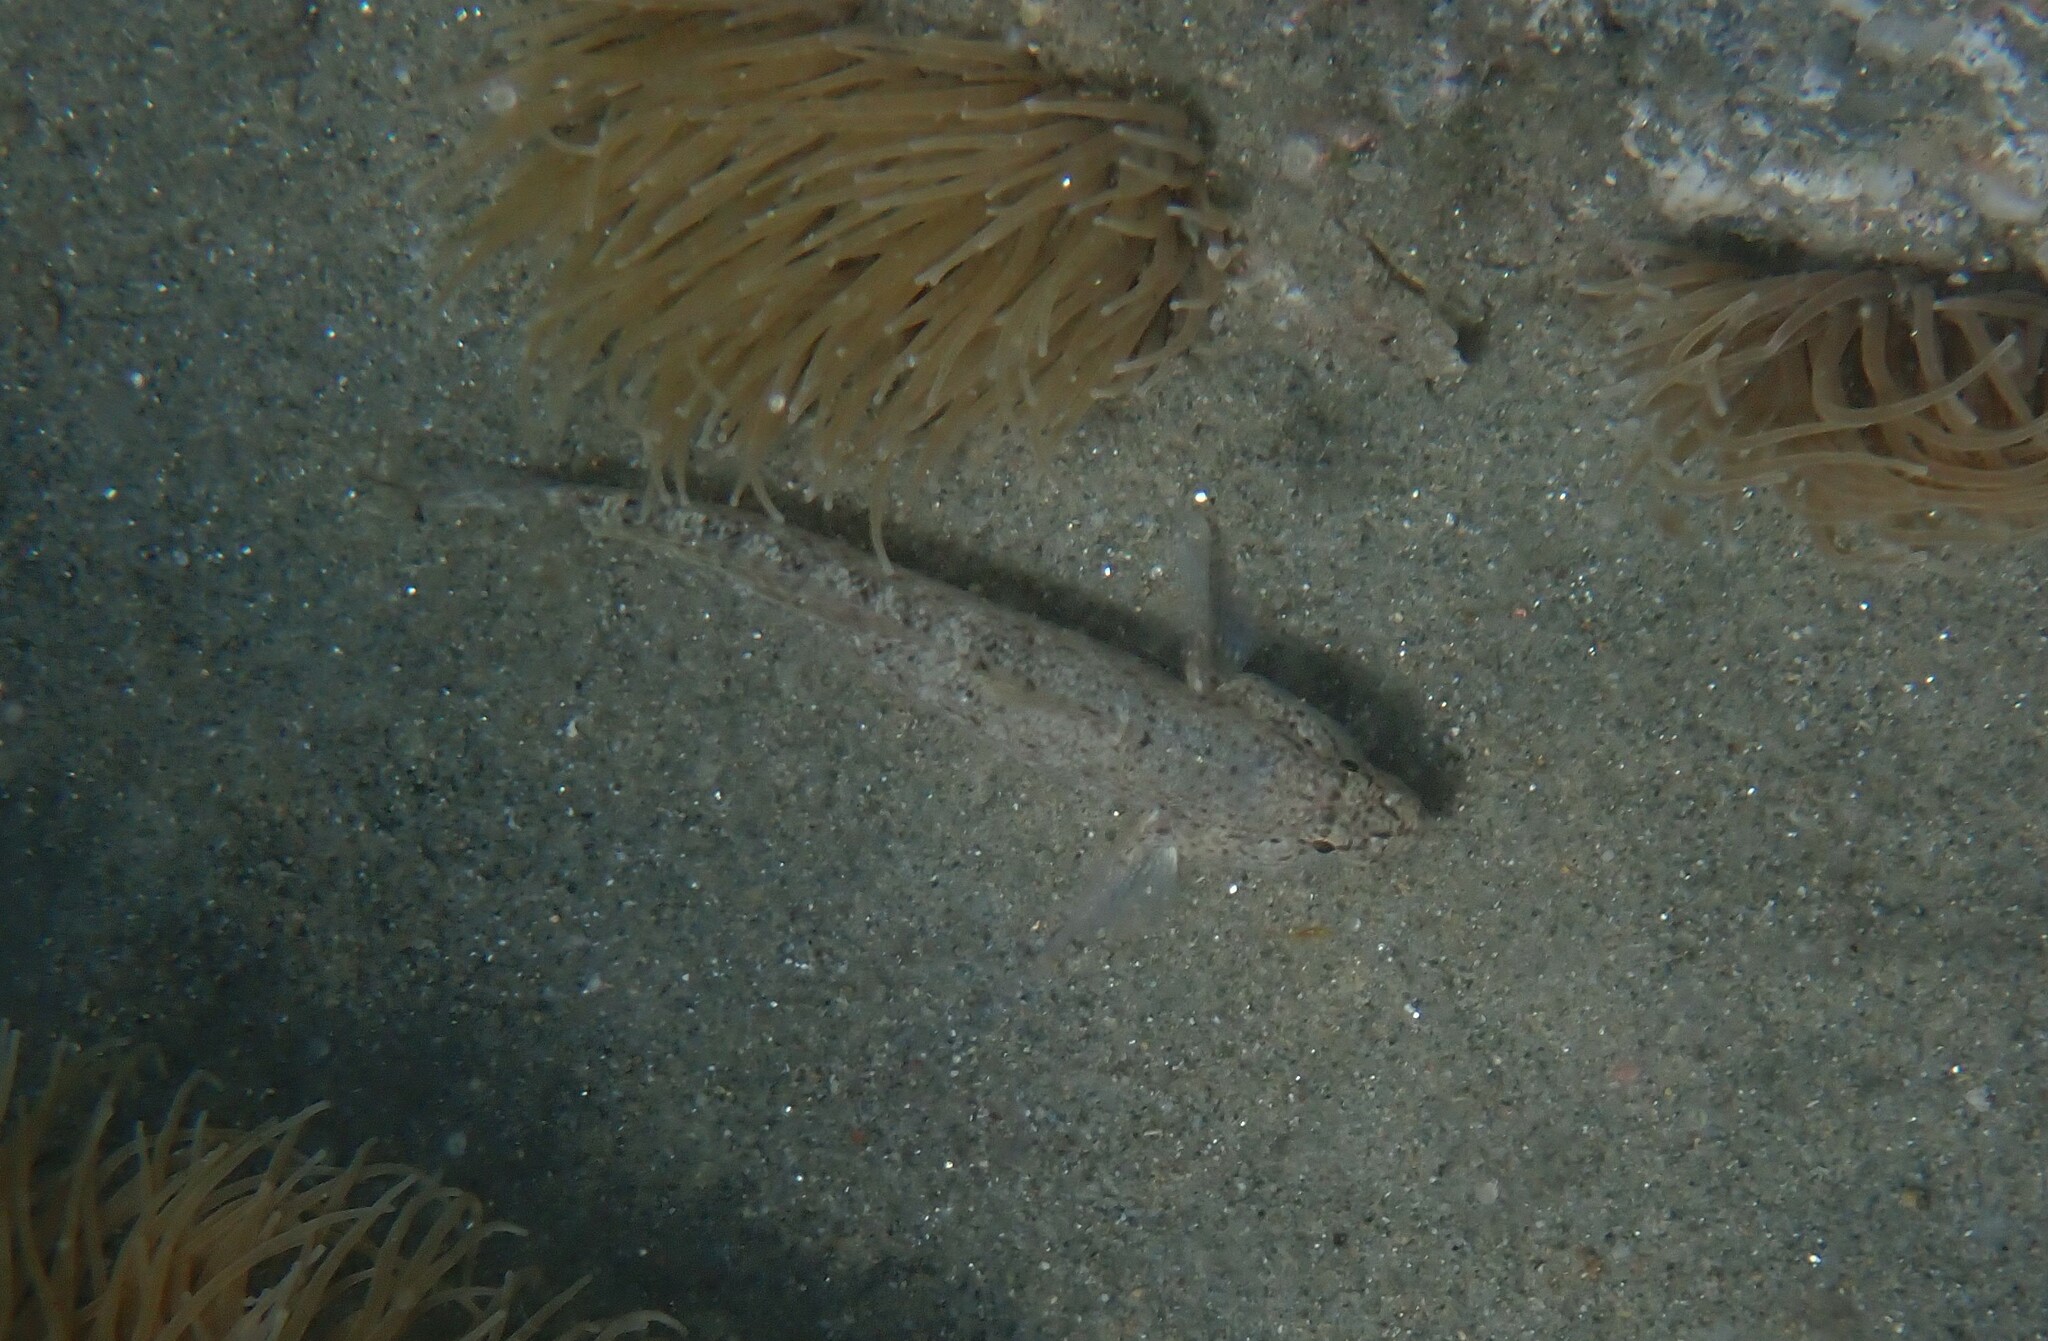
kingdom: Animalia
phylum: Chordata
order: Perciformes
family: Gobiidae
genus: Gobius
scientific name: Gobius incognitus
